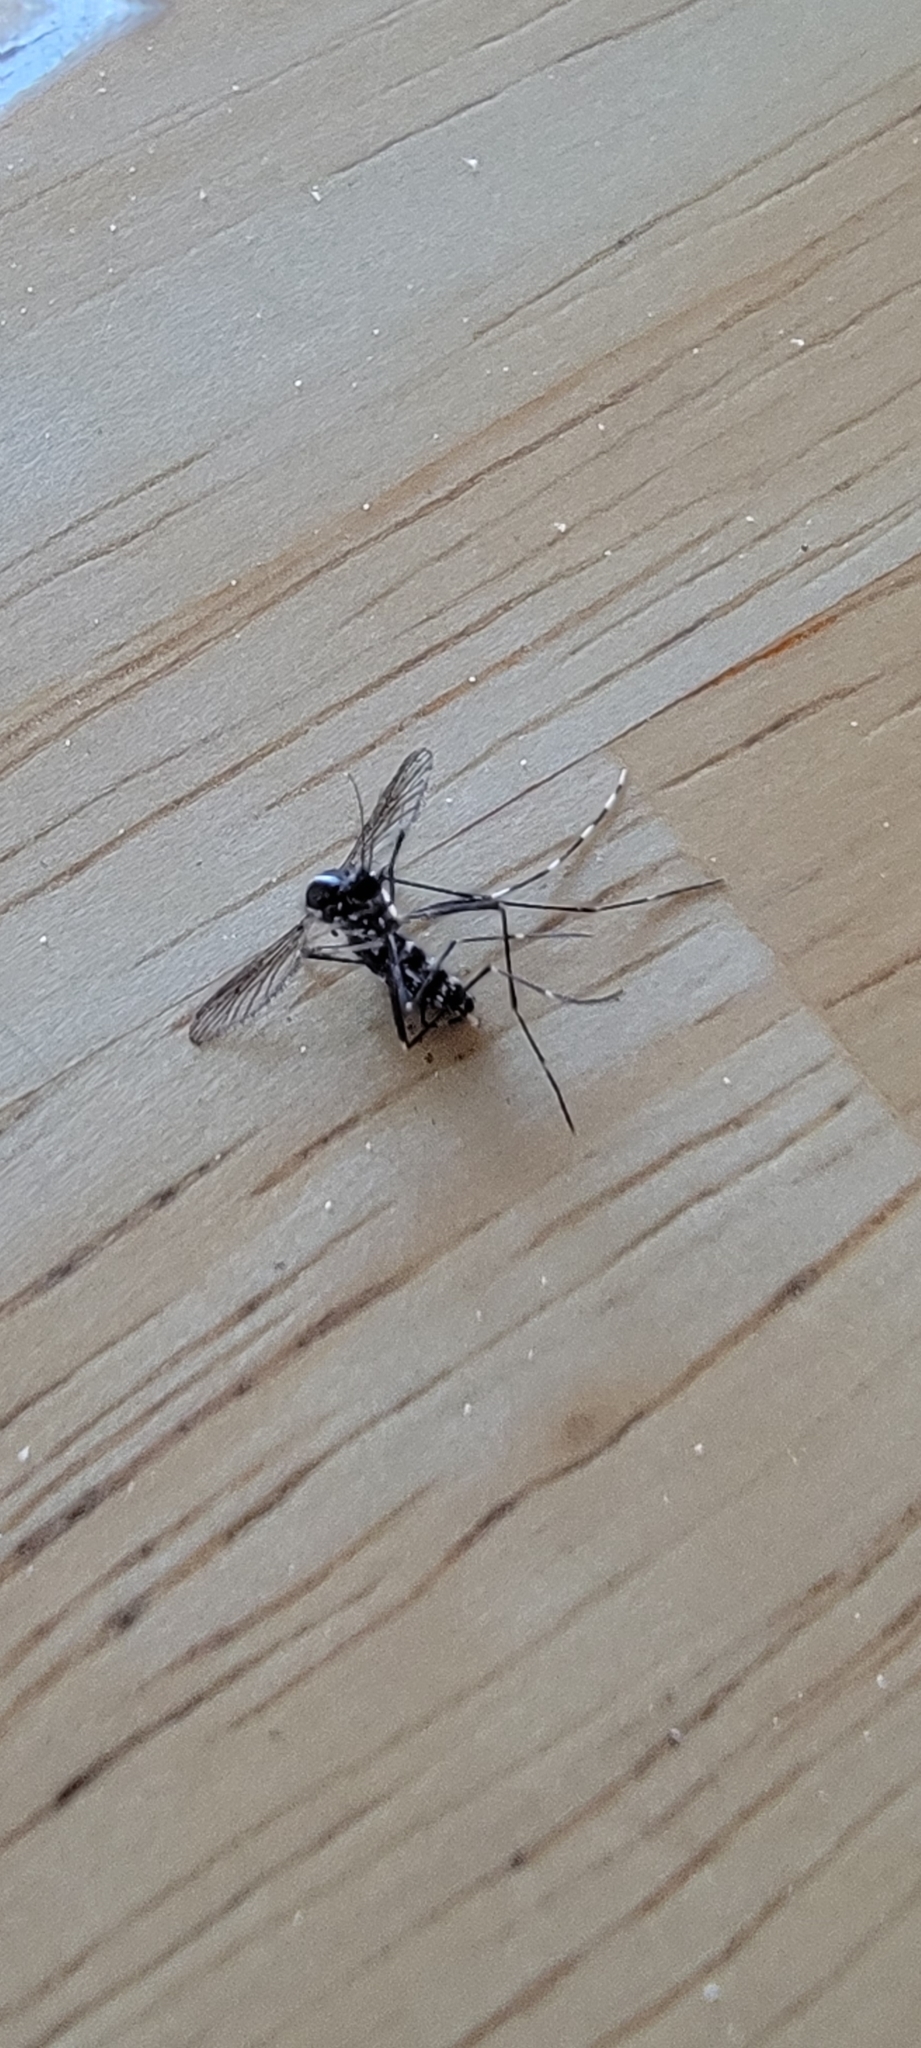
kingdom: Animalia
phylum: Arthropoda
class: Insecta
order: Diptera
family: Culicidae
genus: Aedes
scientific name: Aedes albopictus
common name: Tiger mosquito
